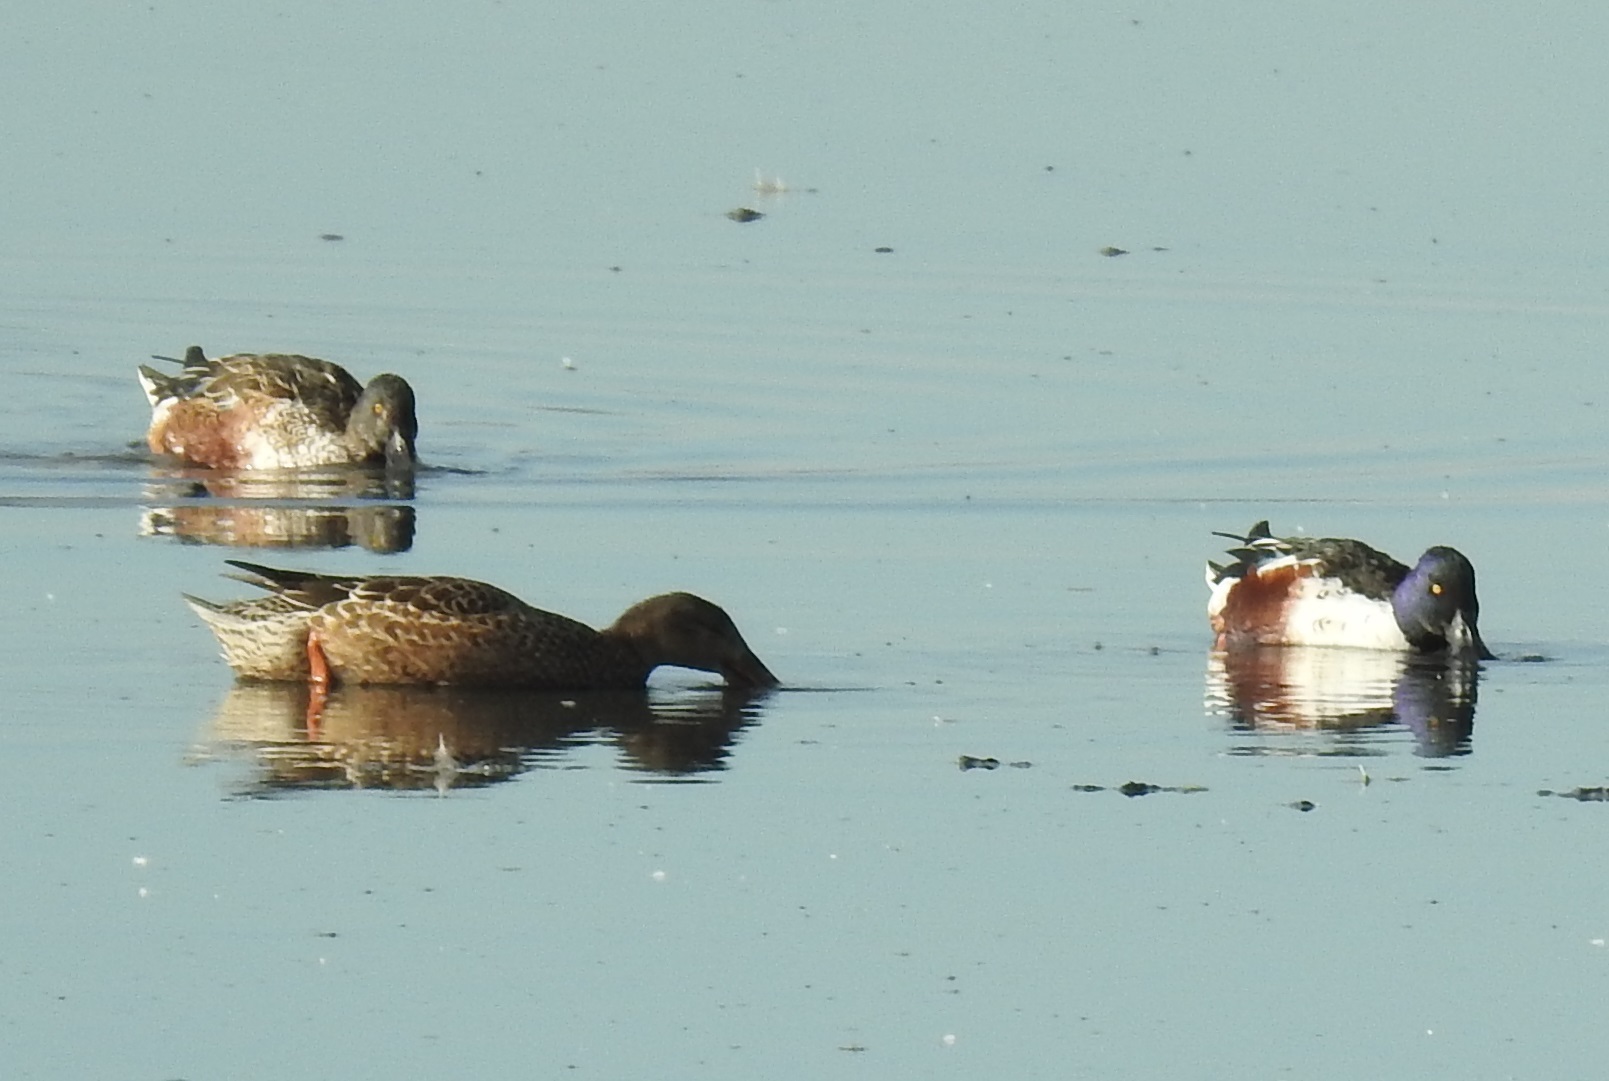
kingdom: Animalia
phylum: Chordata
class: Aves
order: Anseriformes
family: Anatidae
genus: Spatula
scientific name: Spatula clypeata
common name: Northern shoveler
